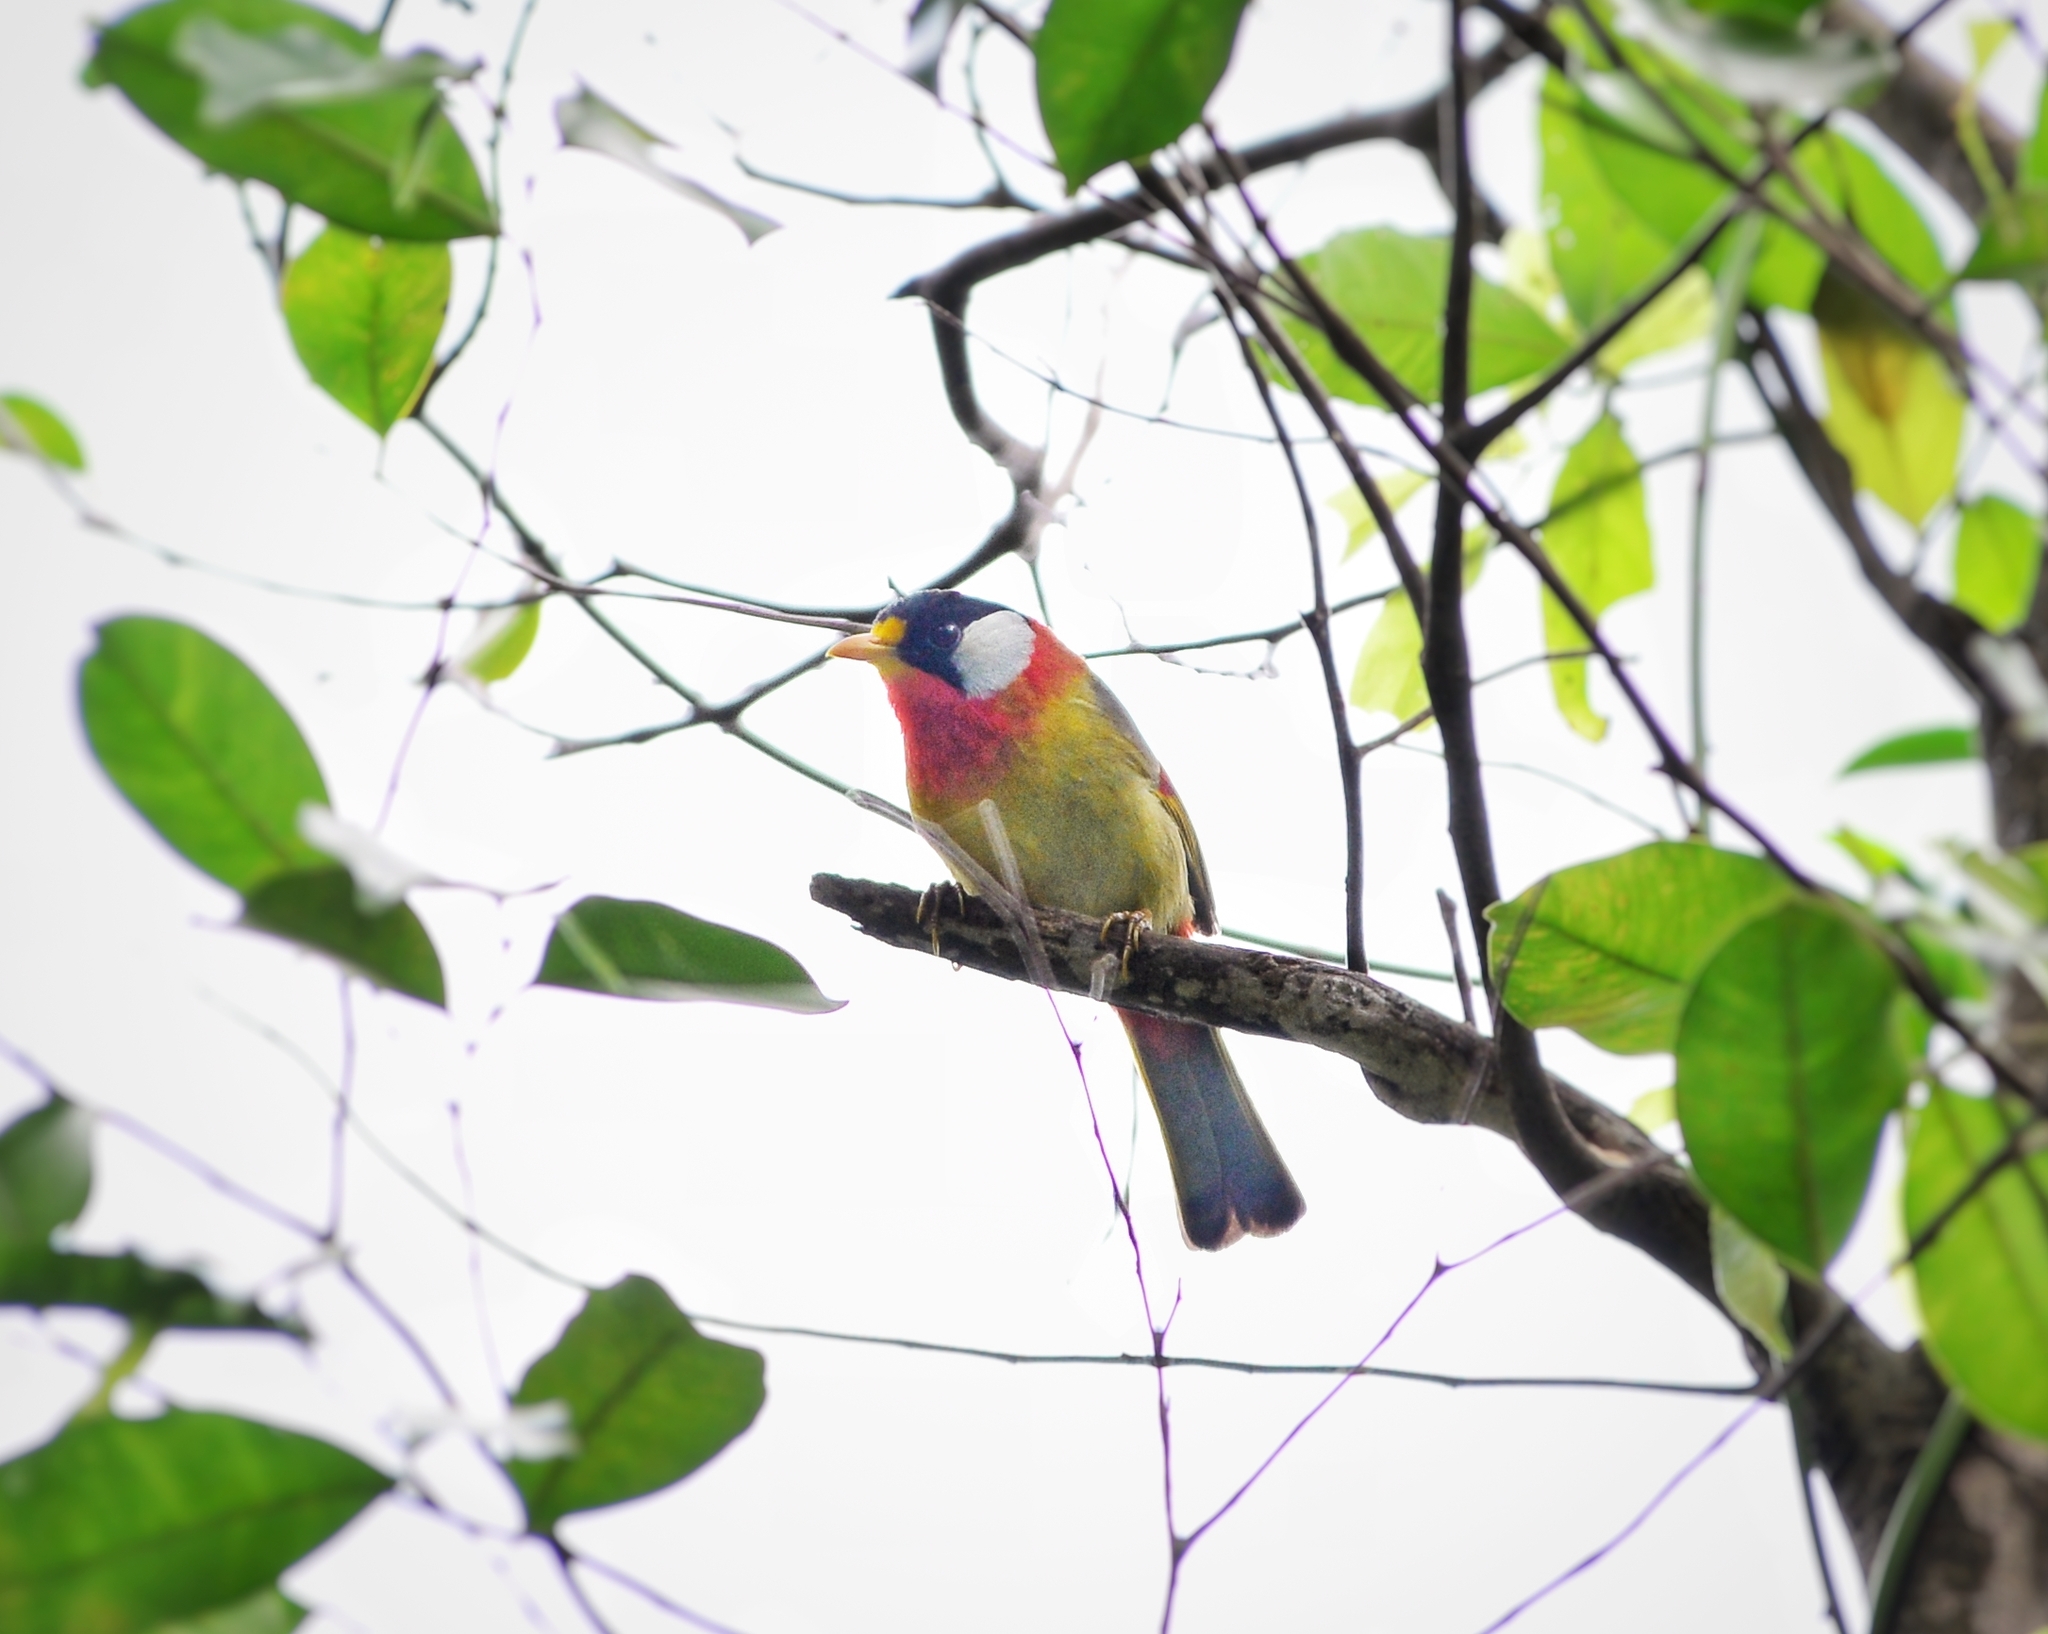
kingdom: Animalia
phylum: Chordata
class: Aves
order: Passeriformes
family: Leiothrichidae
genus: Leiothrix
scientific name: Leiothrix argentauris
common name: Silver-eared mesia
